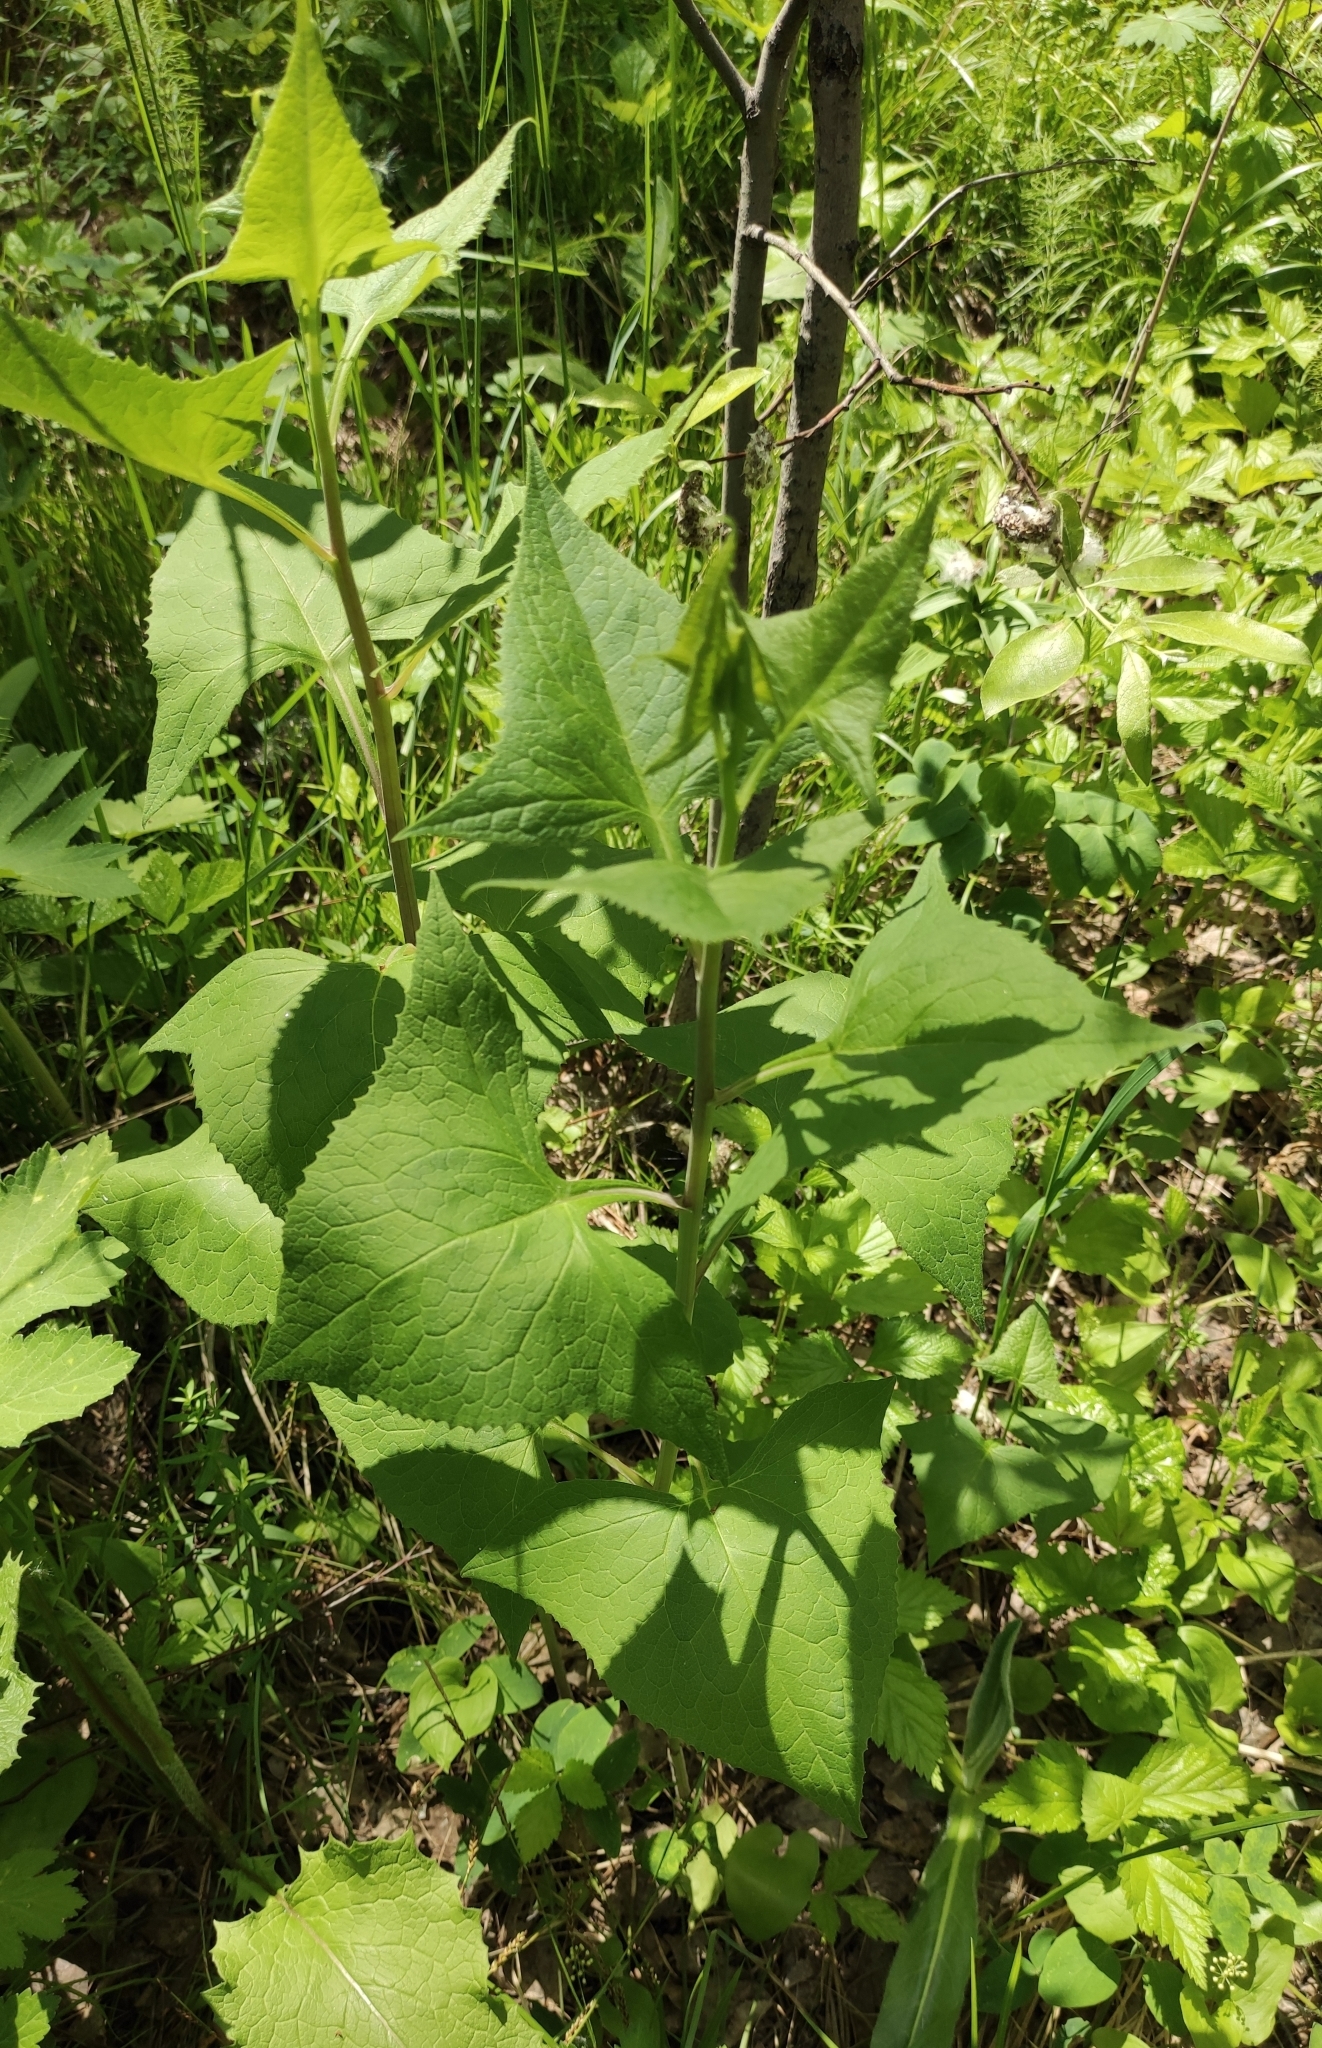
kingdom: Plantae
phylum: Tracheophyta
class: Magnoliopsida
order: Asterales
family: Asteraceae
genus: Parasenecio
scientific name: Parasenecio hastatus
